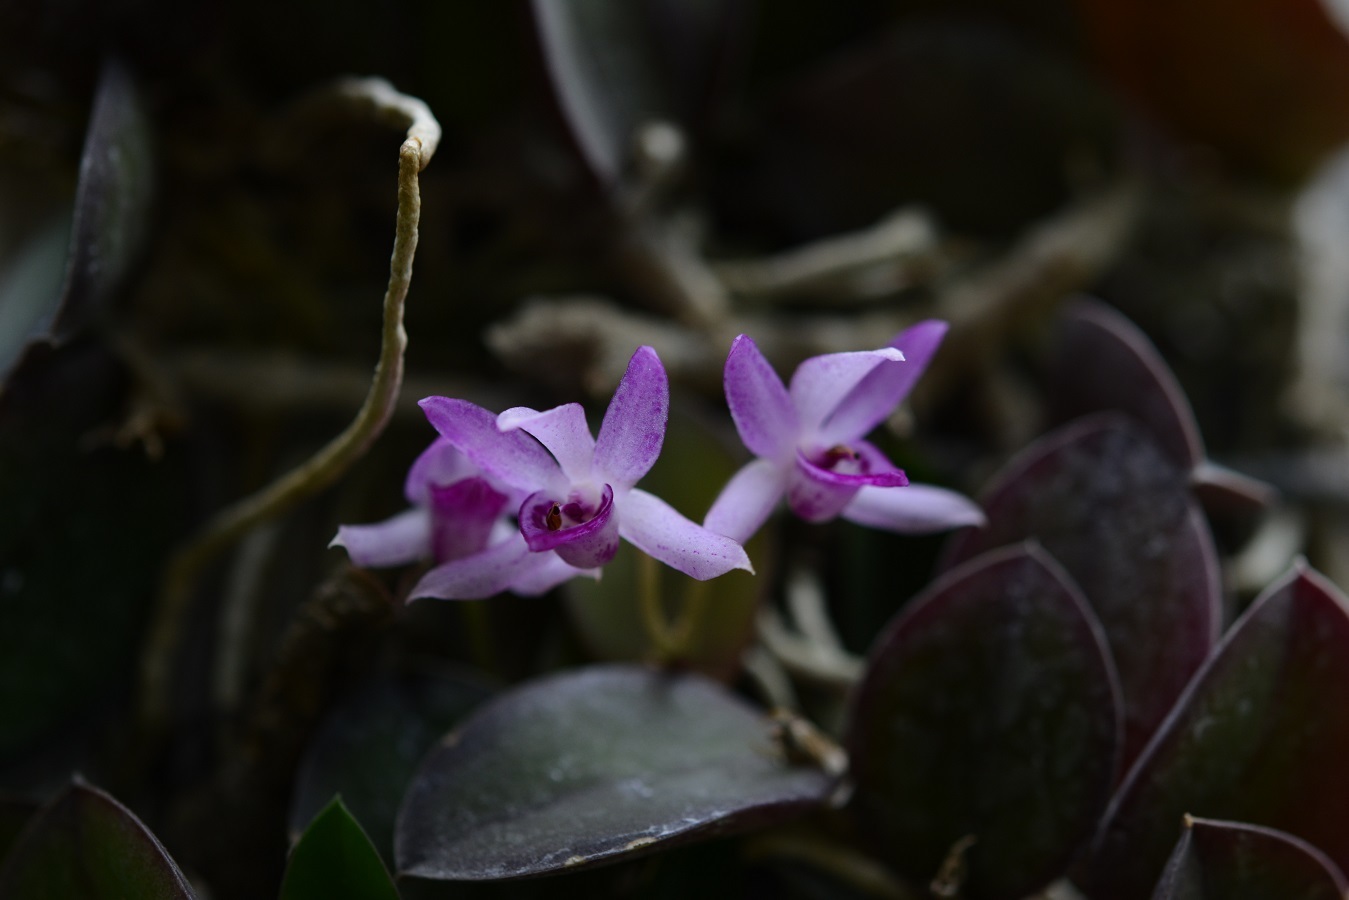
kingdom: Plantae
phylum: Tracheophyta
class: Liliopsida
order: Asparagales
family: Orchidaceae
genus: Meiracyllium
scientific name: Meiracyllium trinasutum
